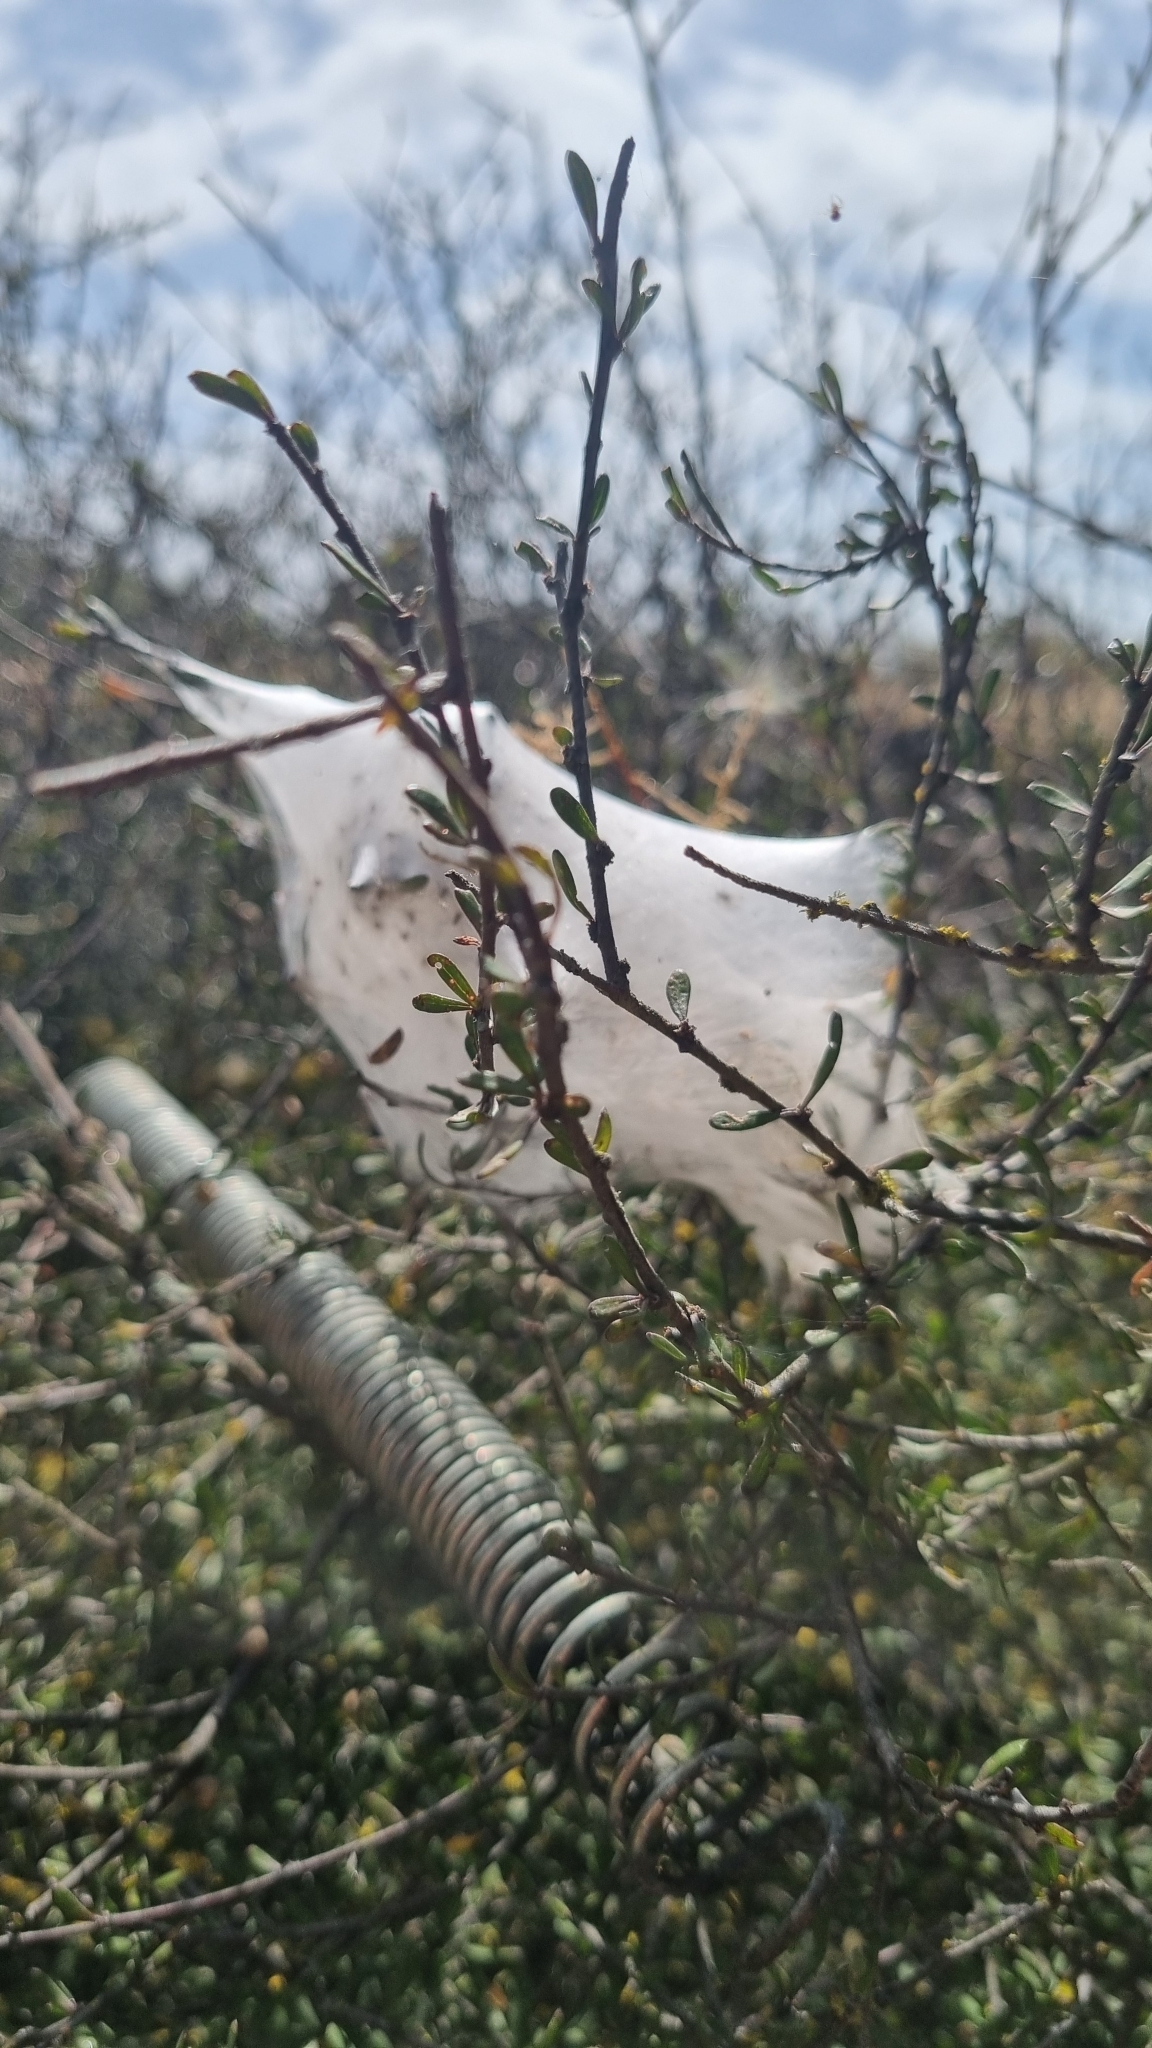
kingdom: Animalia
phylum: Arthropoda
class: Arachnida
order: Araneae
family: Pisauridae
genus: Dolomedes
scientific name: Dolomedes minor
